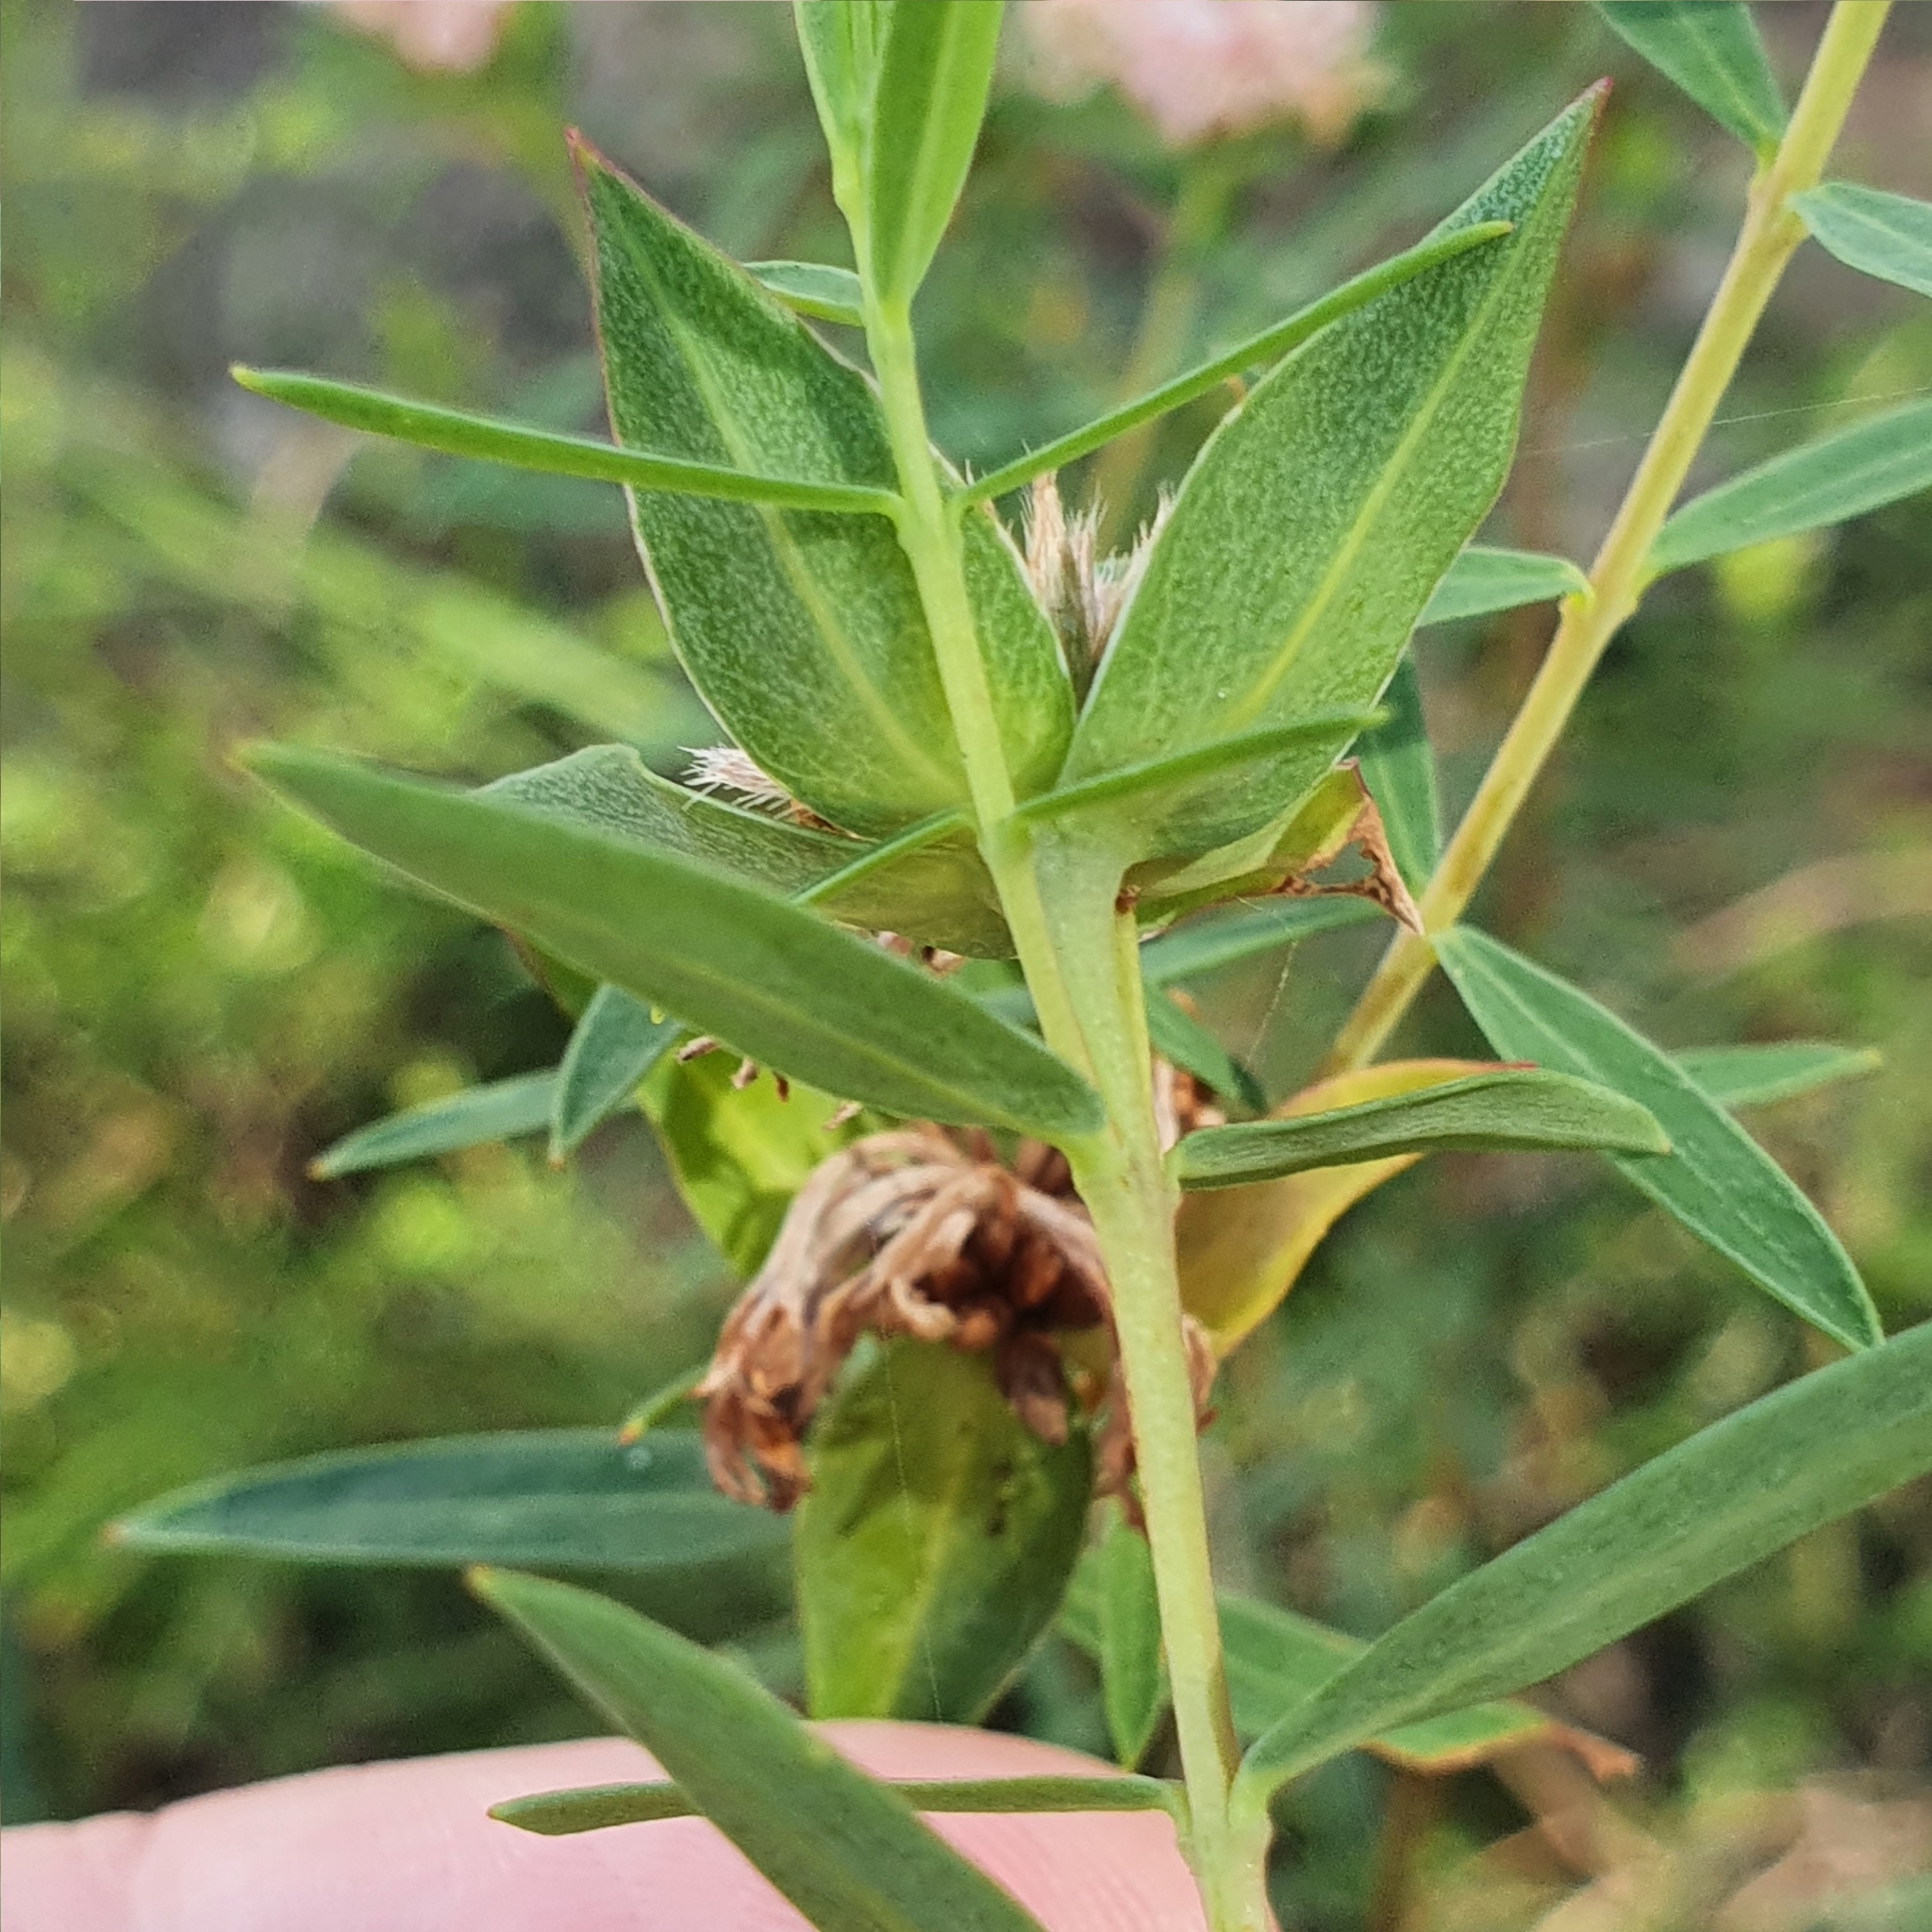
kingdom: Plantae
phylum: Tracheophyta
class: Magnoliopsida
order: Malvales
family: Thymelaeaceae
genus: Pimelea
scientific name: Pimelea linifolia
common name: Queen-of-the-bush
